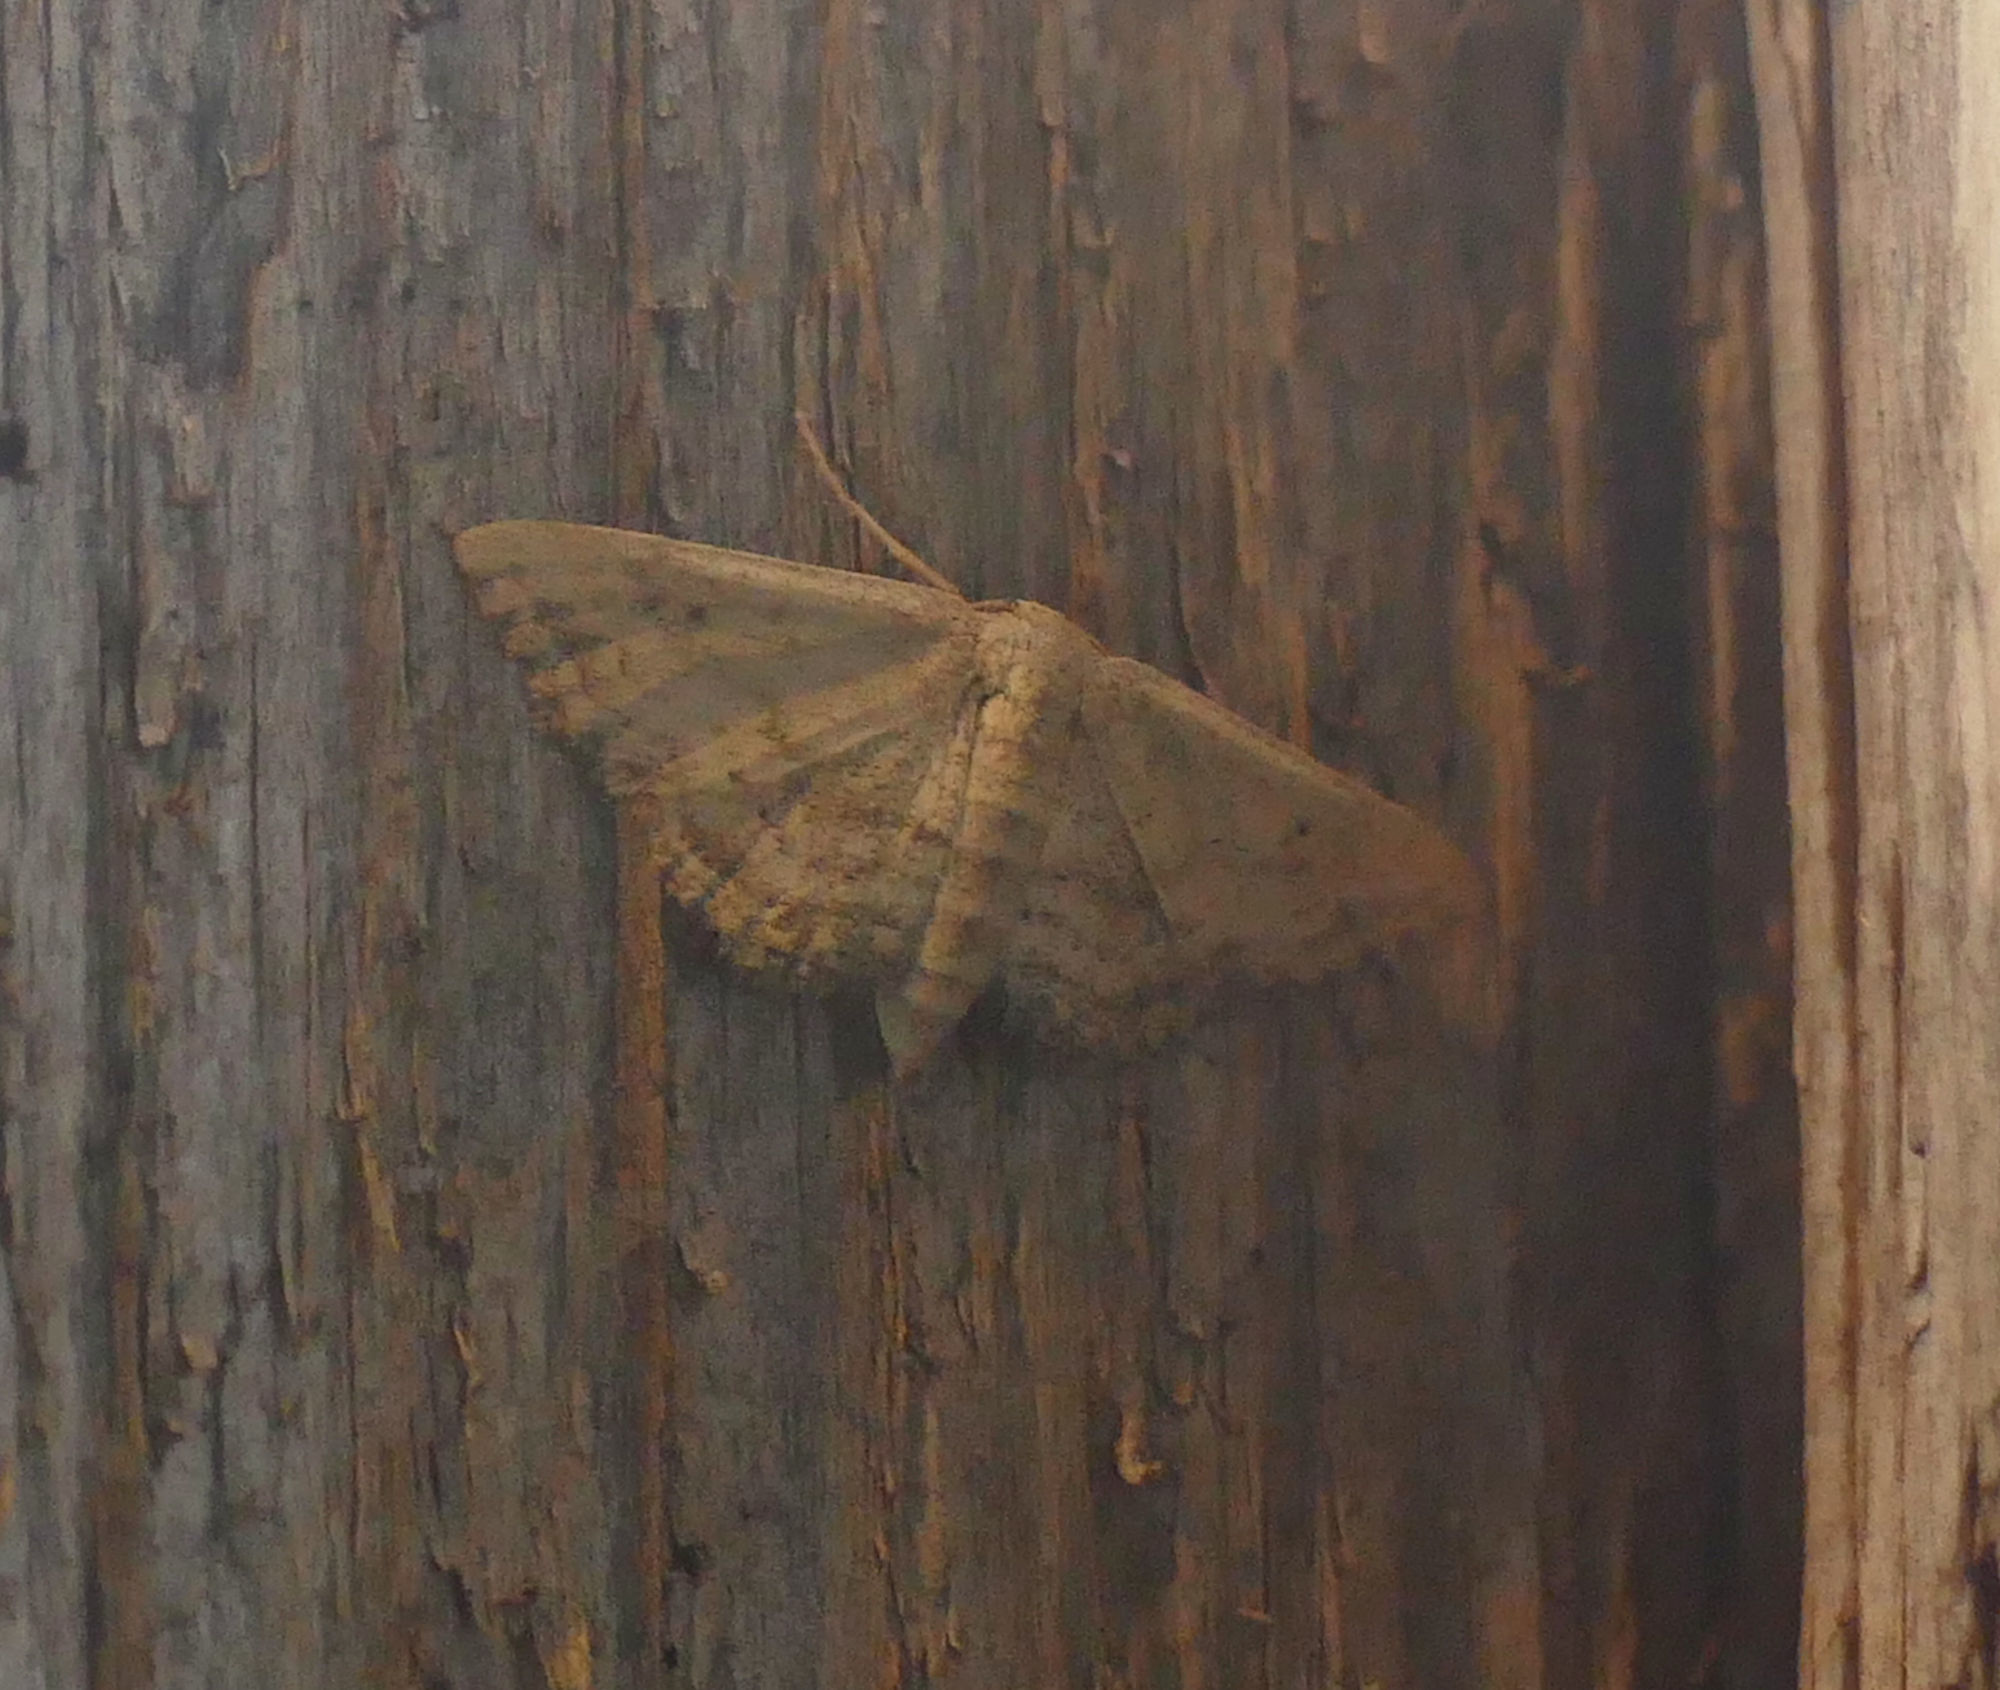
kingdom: Animalia
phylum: Arthropoda
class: Insecta
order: Lepidoptera
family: Geometridae
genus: Lobocleta
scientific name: Lobocleta ossularia
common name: Drab brown wave
